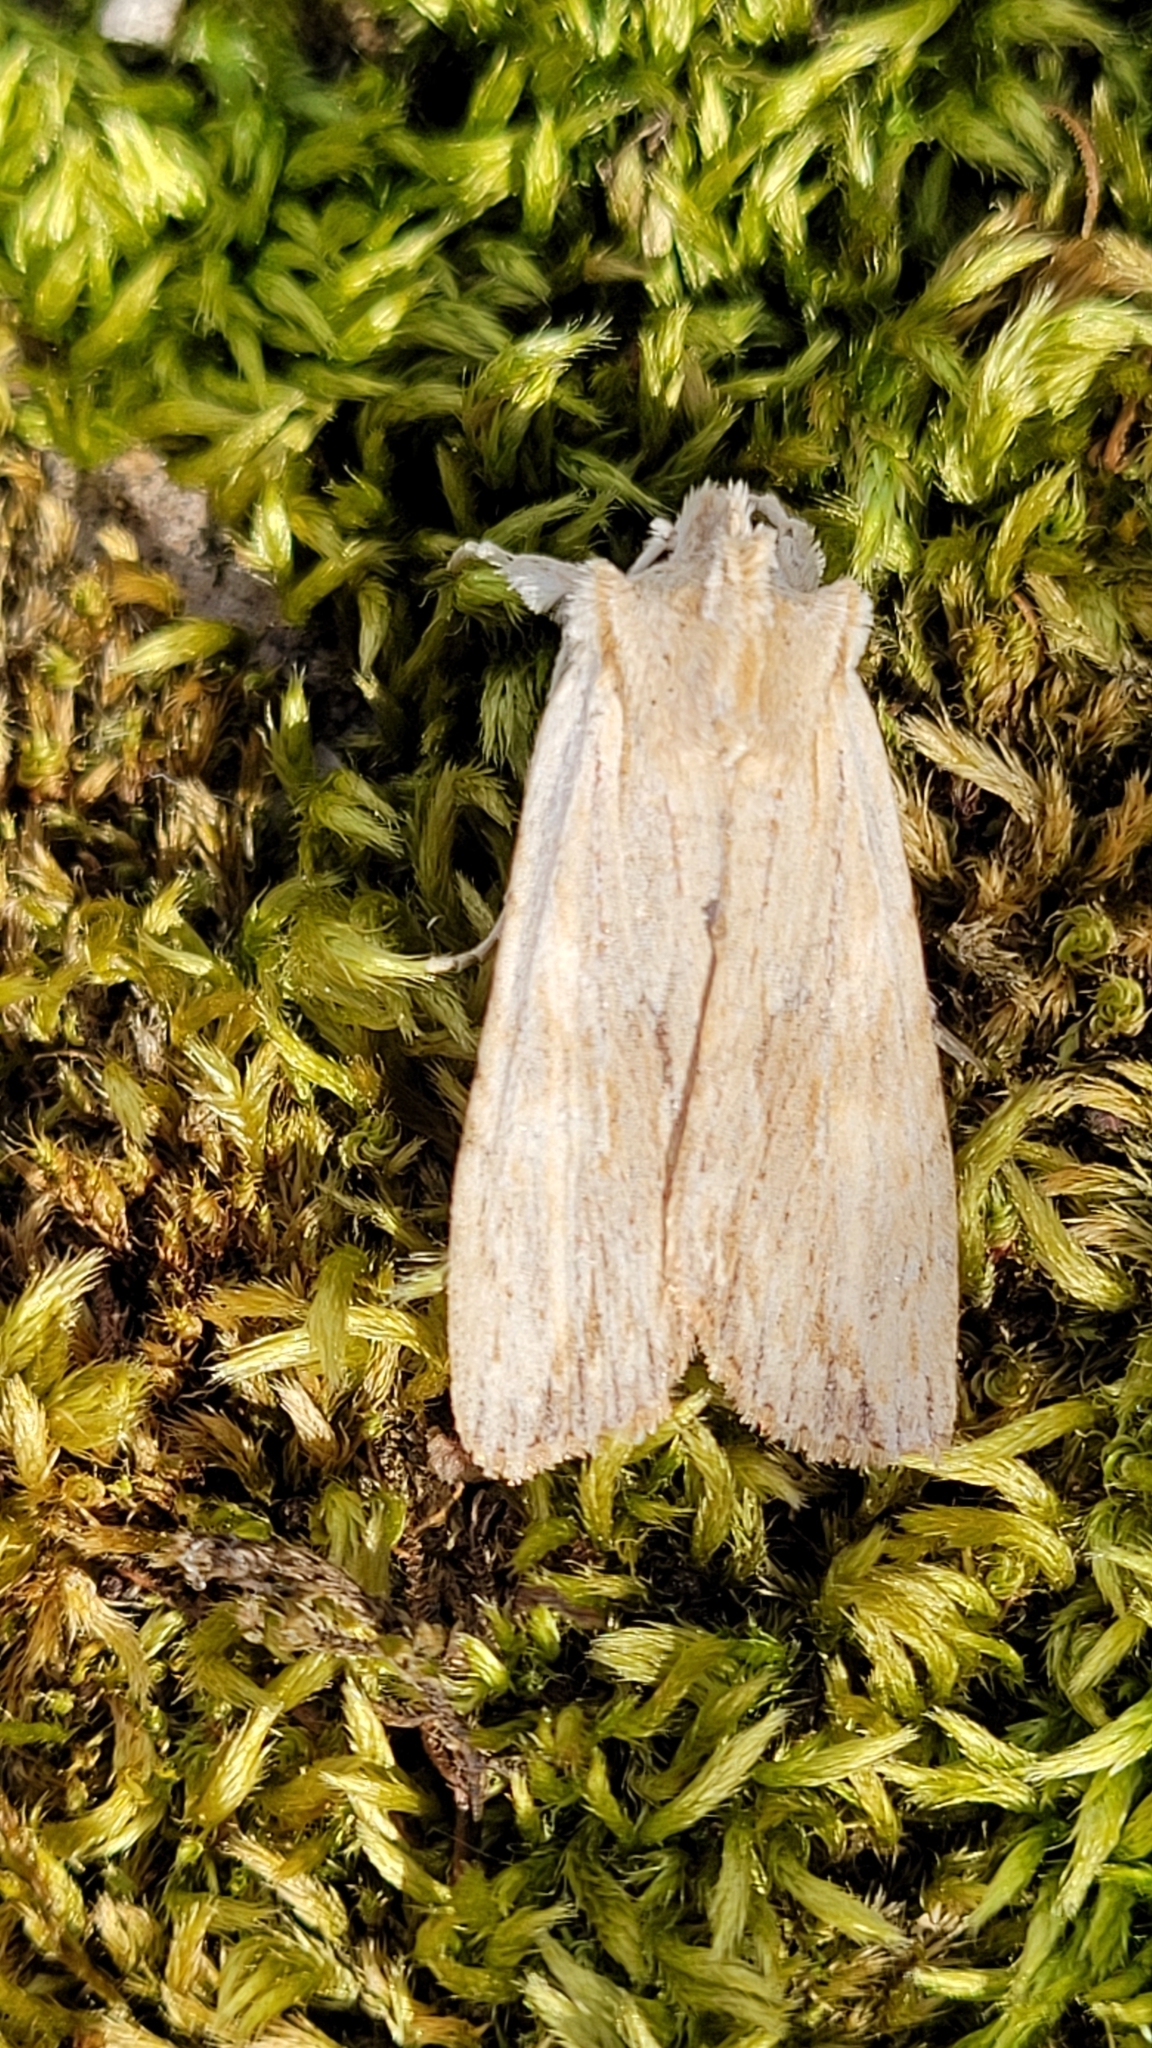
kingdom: Animalia
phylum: Arthropoda
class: Insecta
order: Lepidoptera
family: Noctuidae
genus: Lithophane
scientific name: Lithophane socia
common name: Pale pinion
